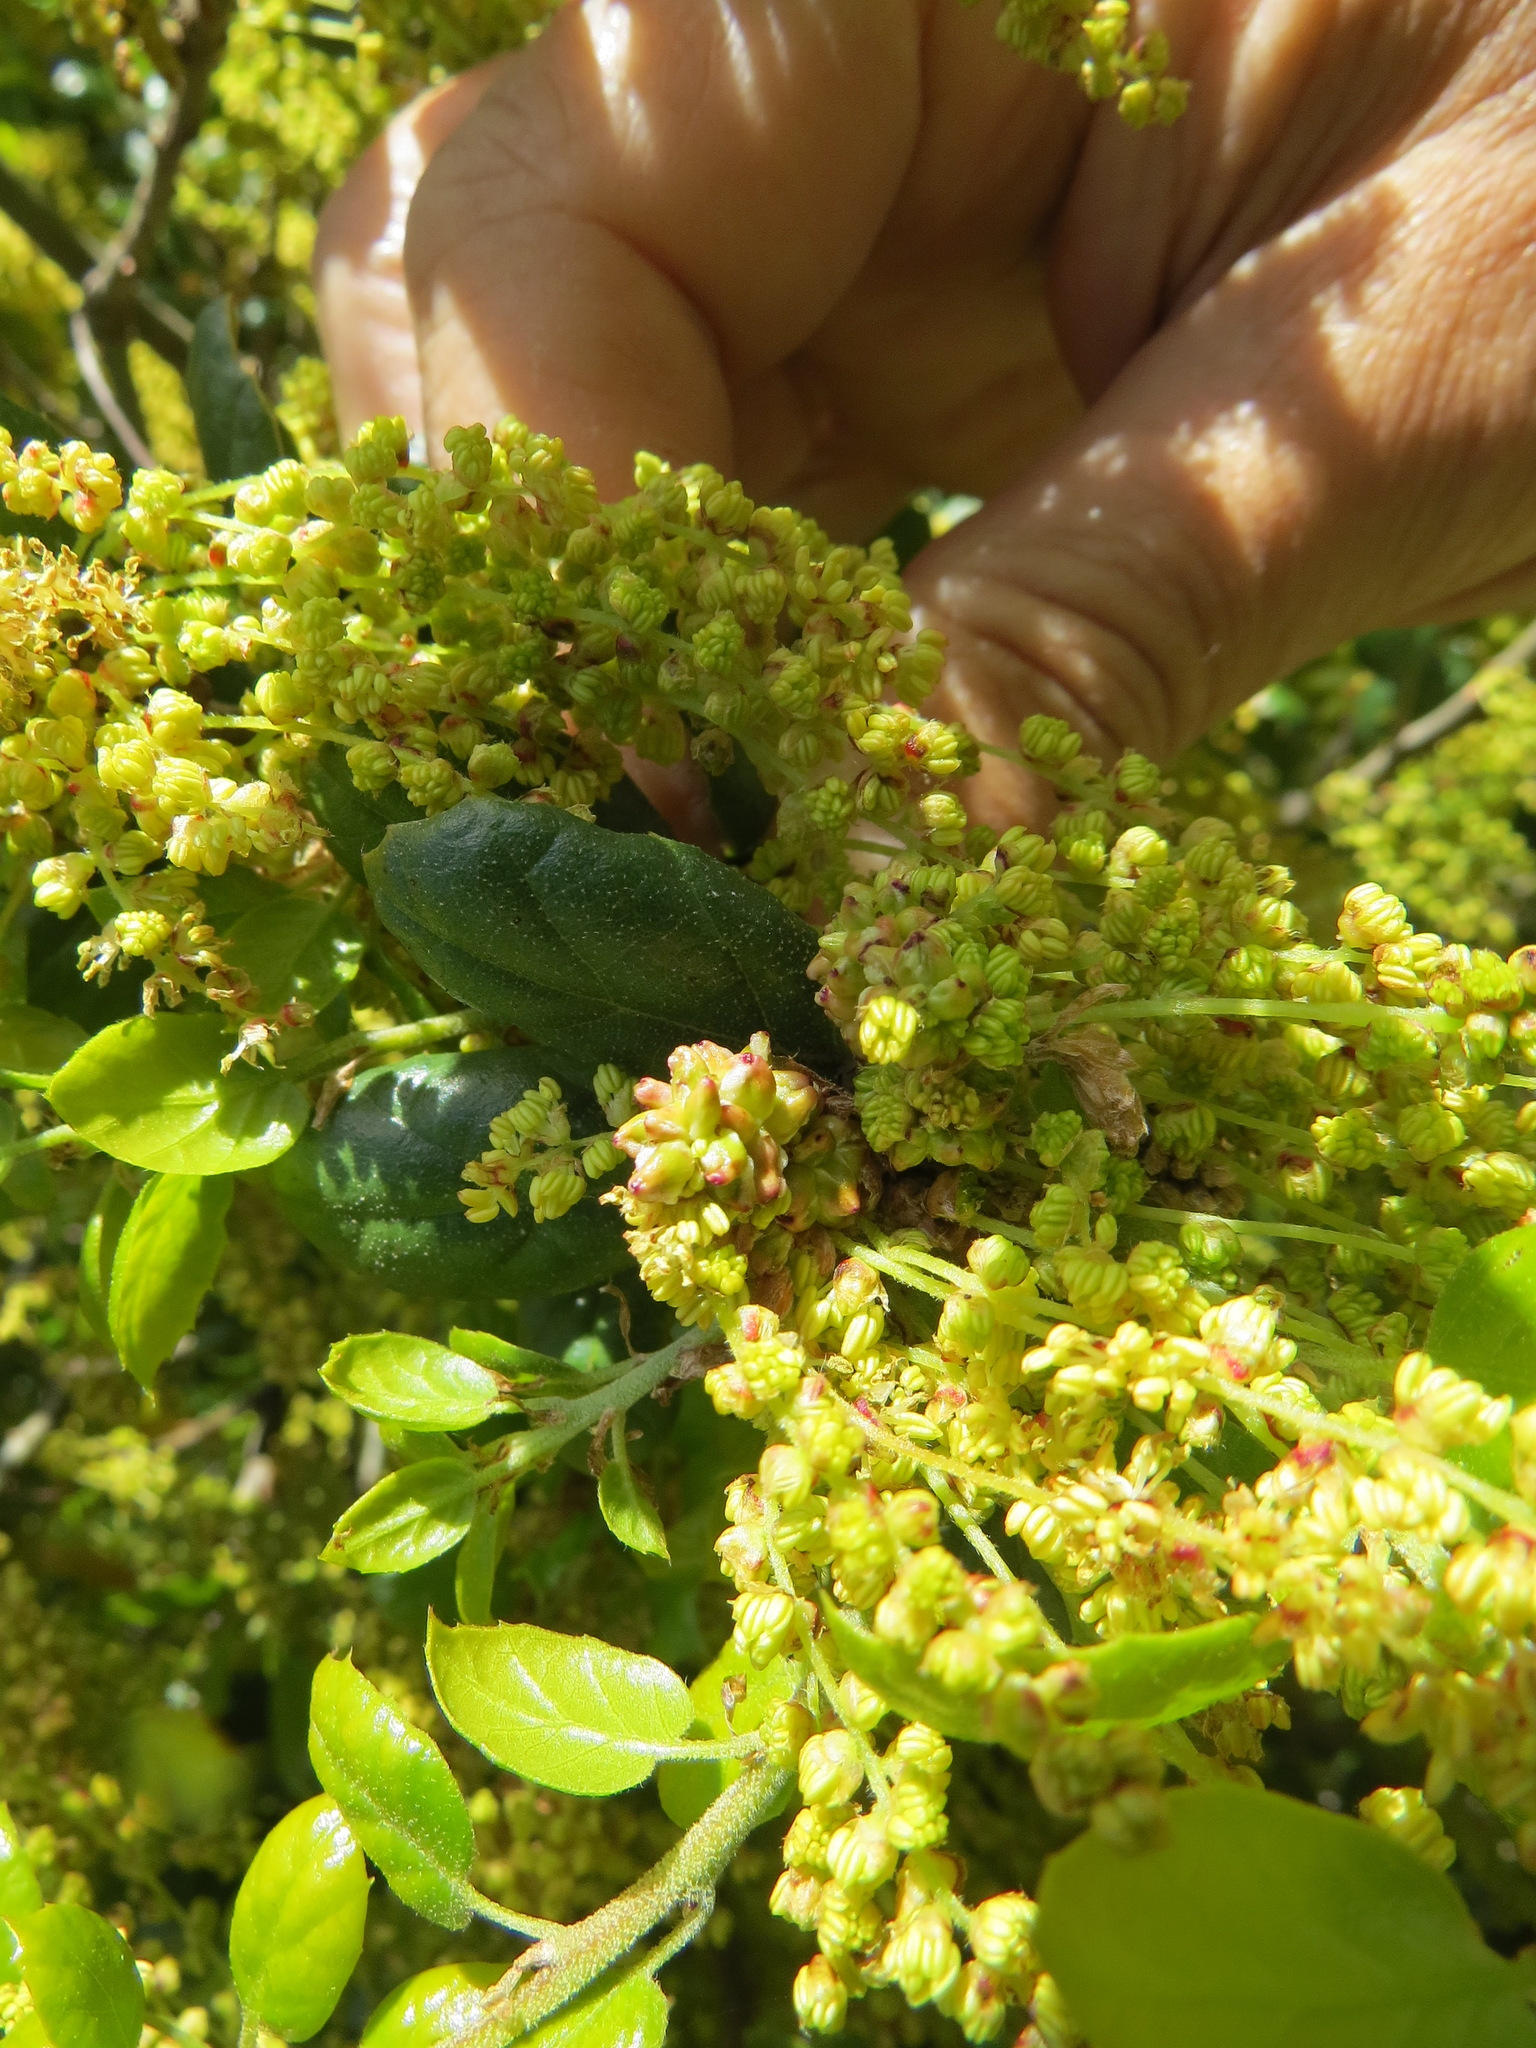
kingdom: Animalia
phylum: Arthropoda
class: Insecta
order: Hymenoptera
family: Cynipidae
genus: Callirhytis
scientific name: Callirhytis
